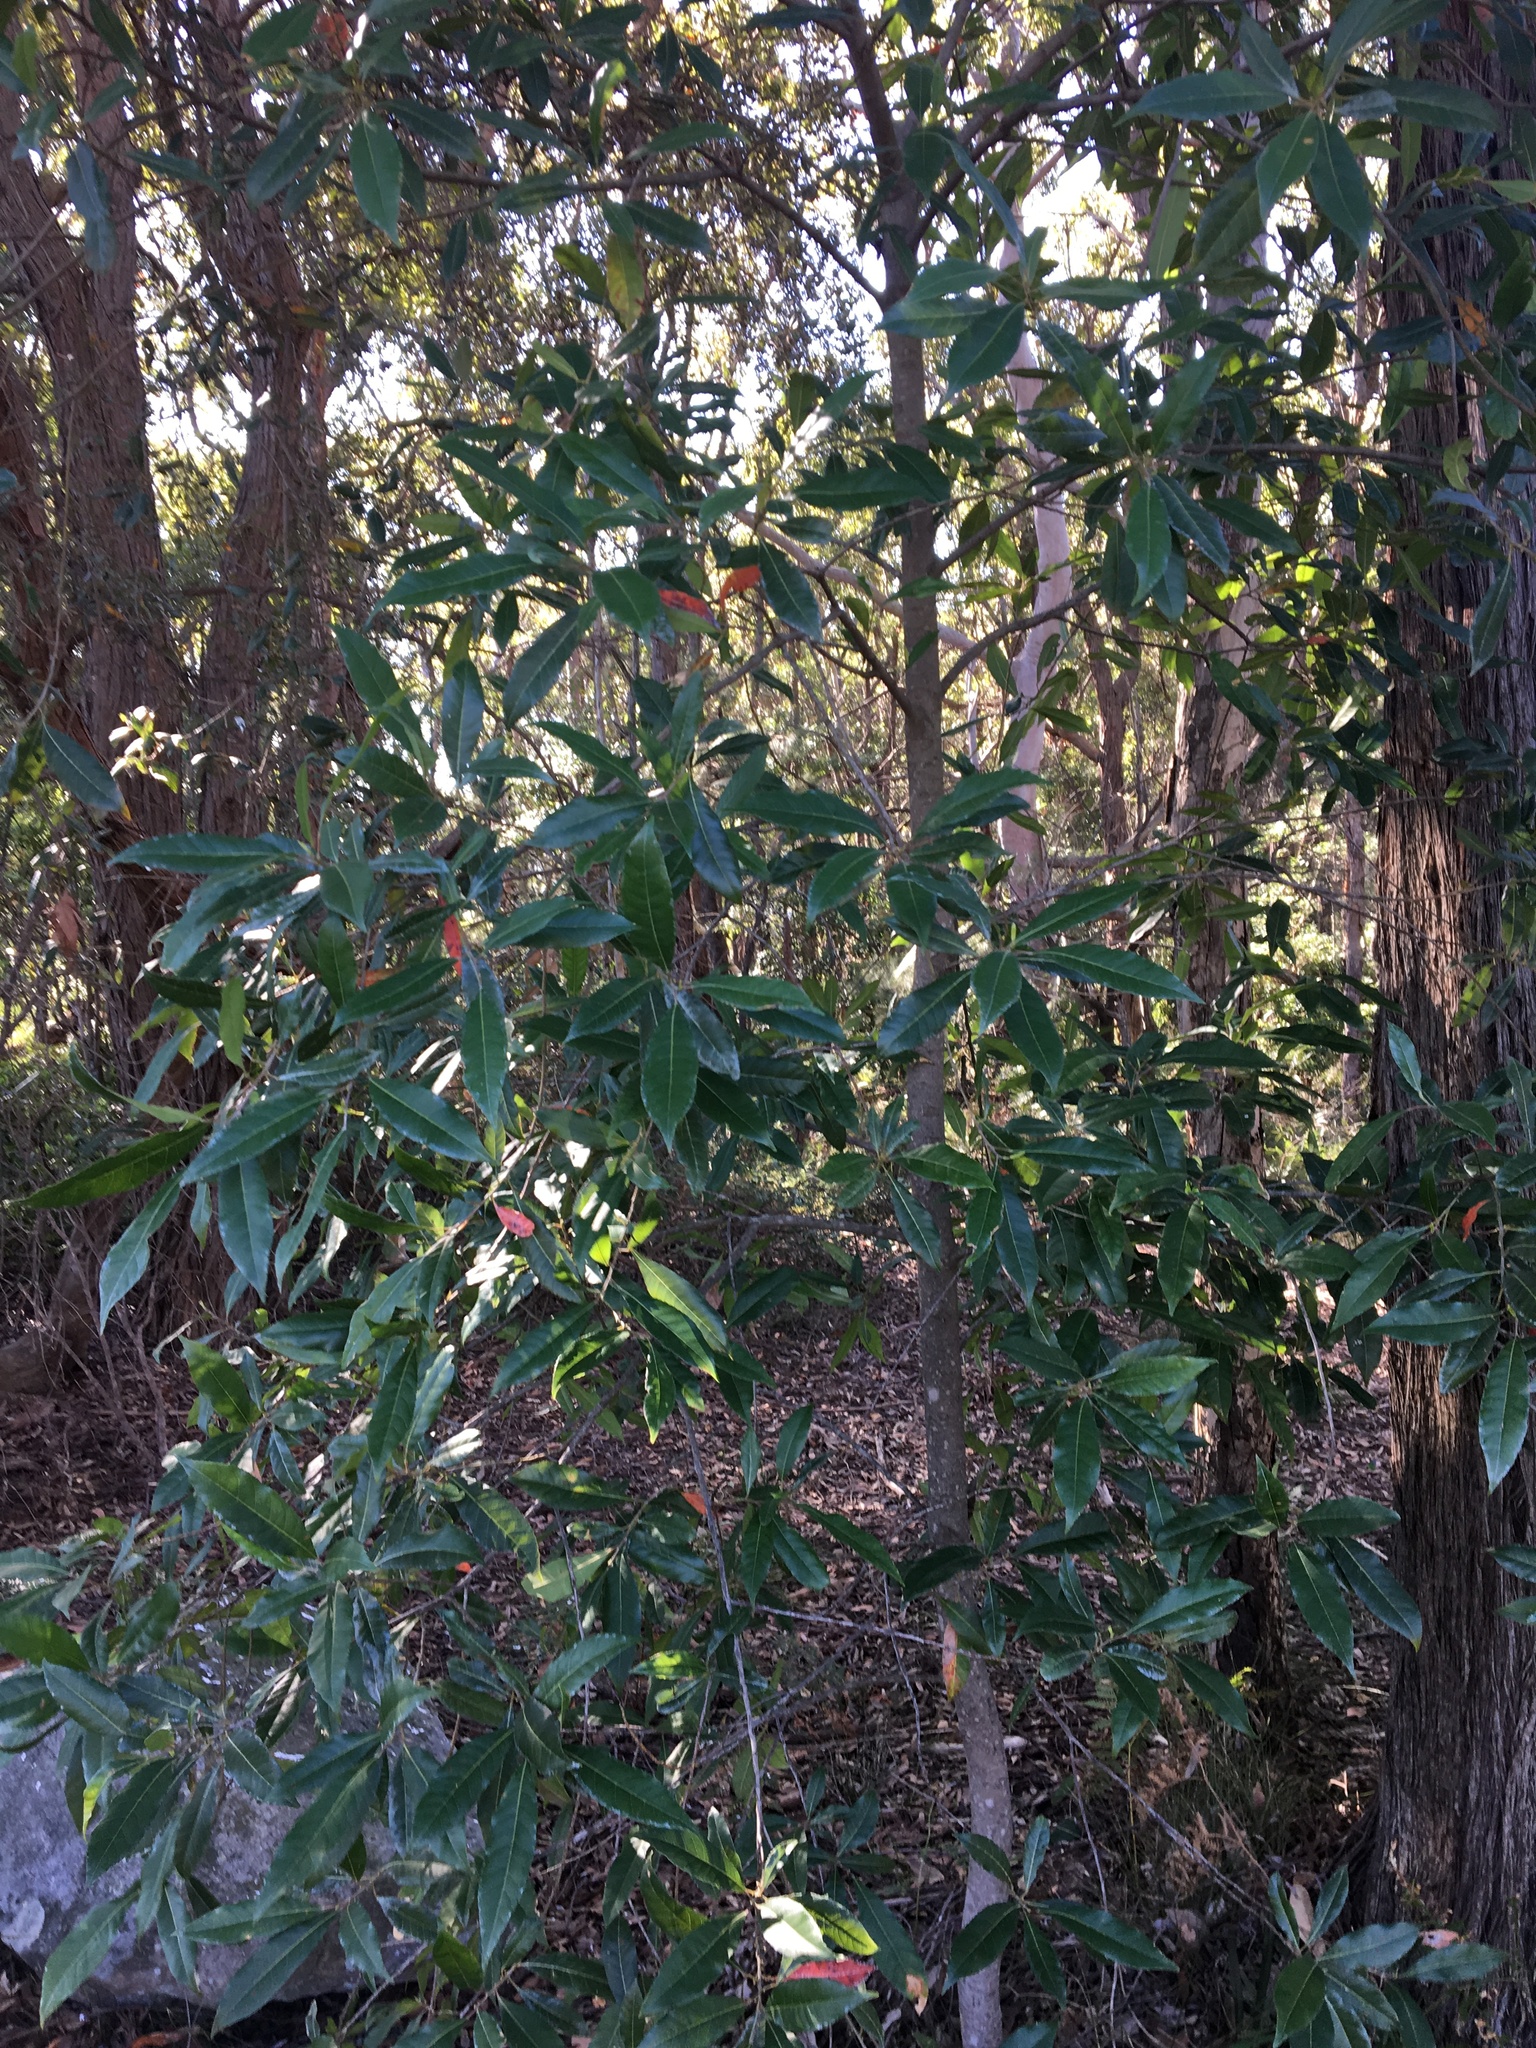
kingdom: Plantae
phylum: Tracheophyta
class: Magnoliopsida
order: Oxalidales
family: Elaeocarpaceae
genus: Elaeocarpus
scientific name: Elaeocarpus reticulatus
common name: Ash quandong
